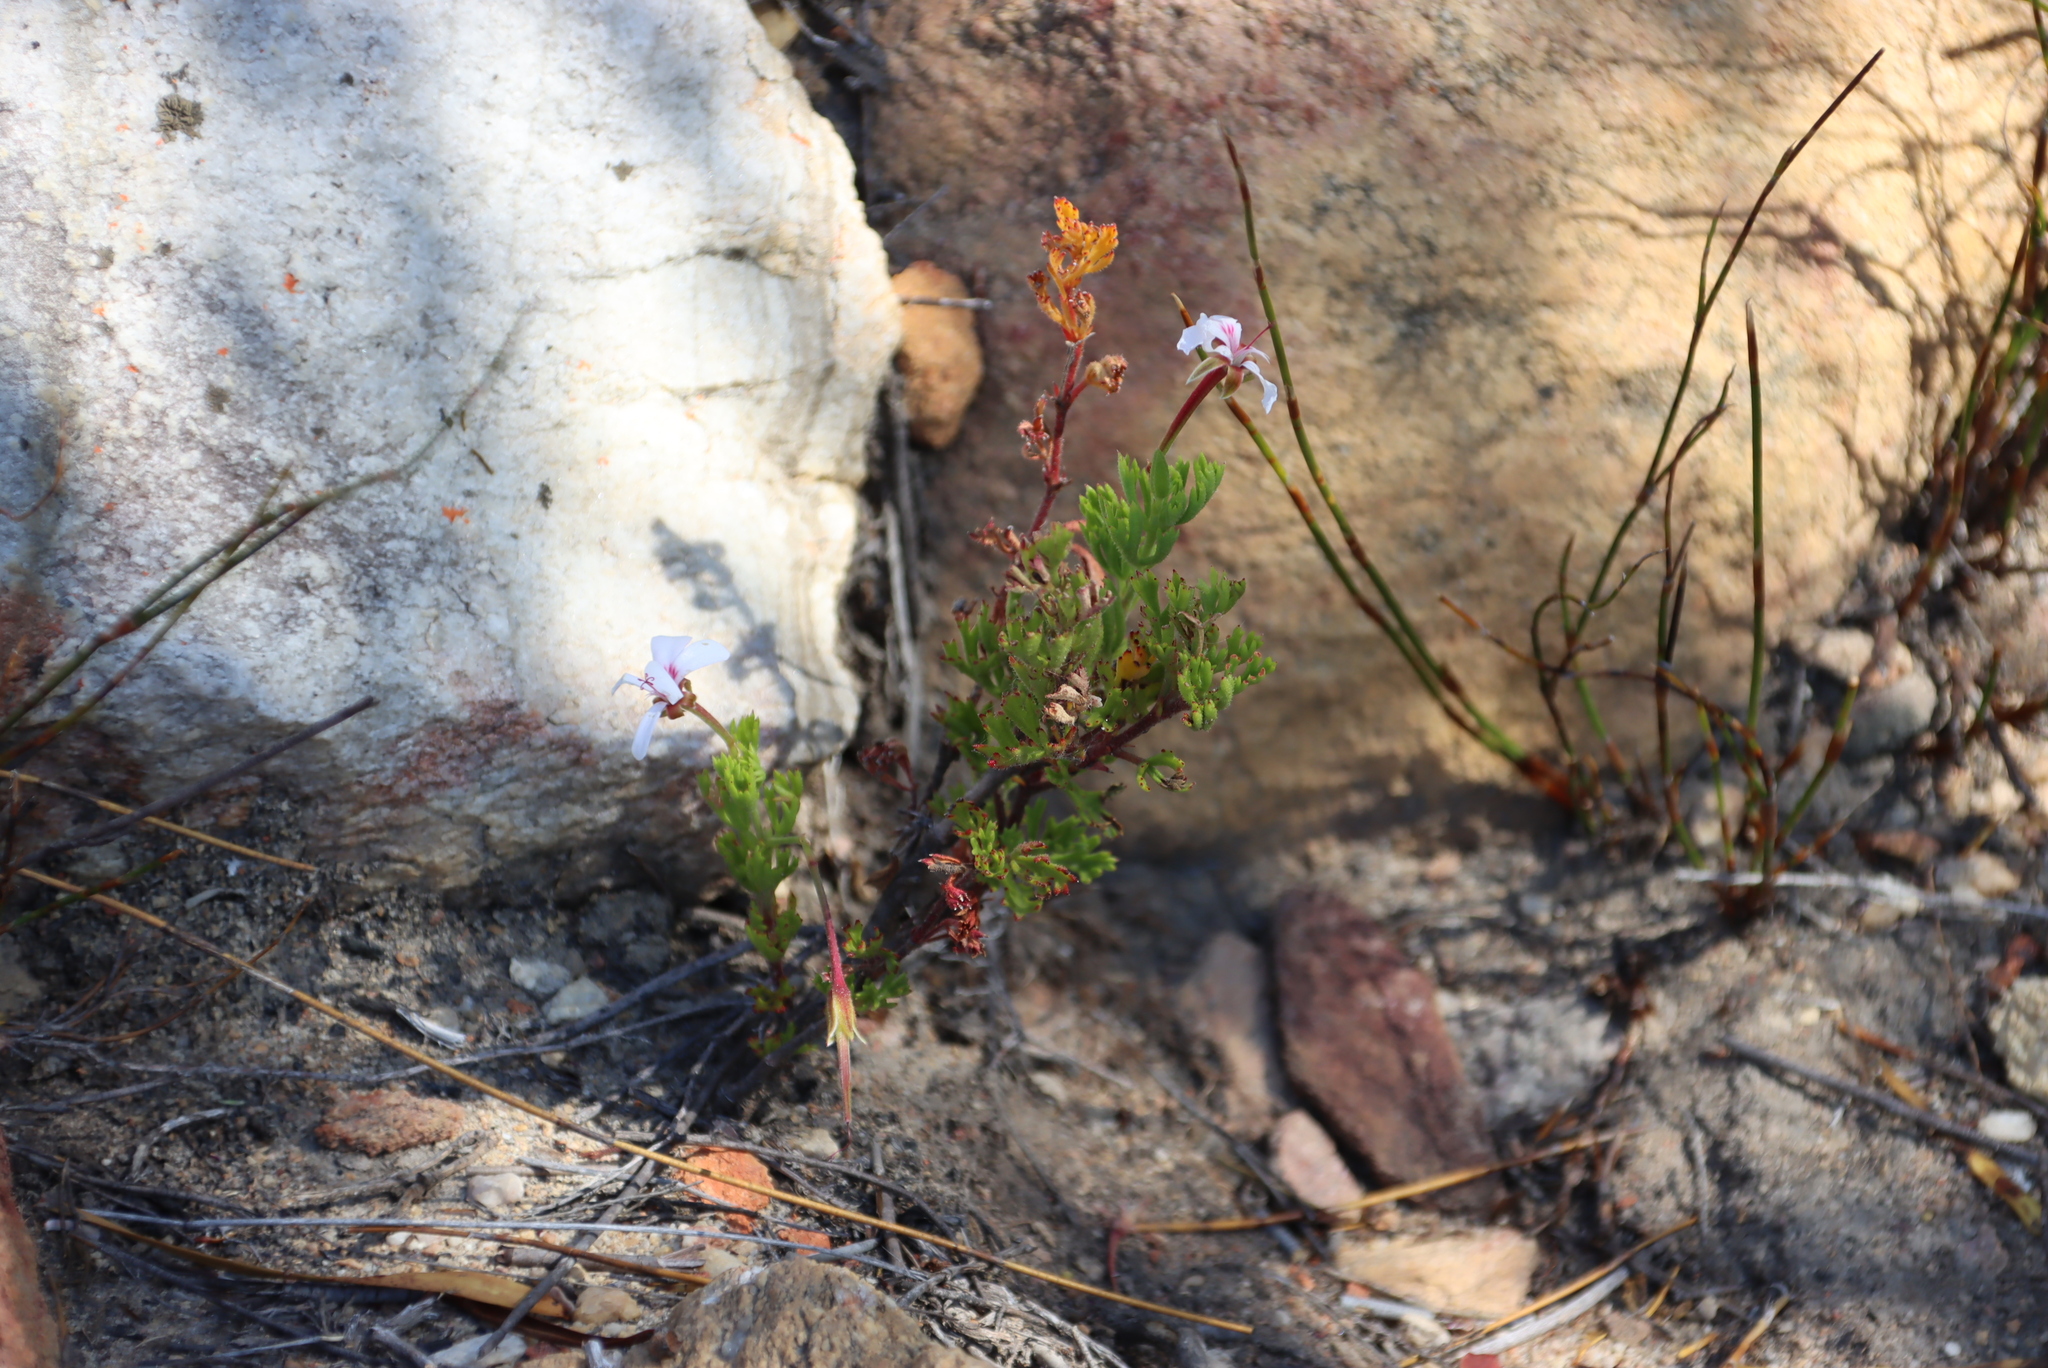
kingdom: Plantae
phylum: Tracheophyta
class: Magnoliopsida
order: Geraniales
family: Geraniaceae
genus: Pelargonium
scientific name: Pelargonium ternatum
